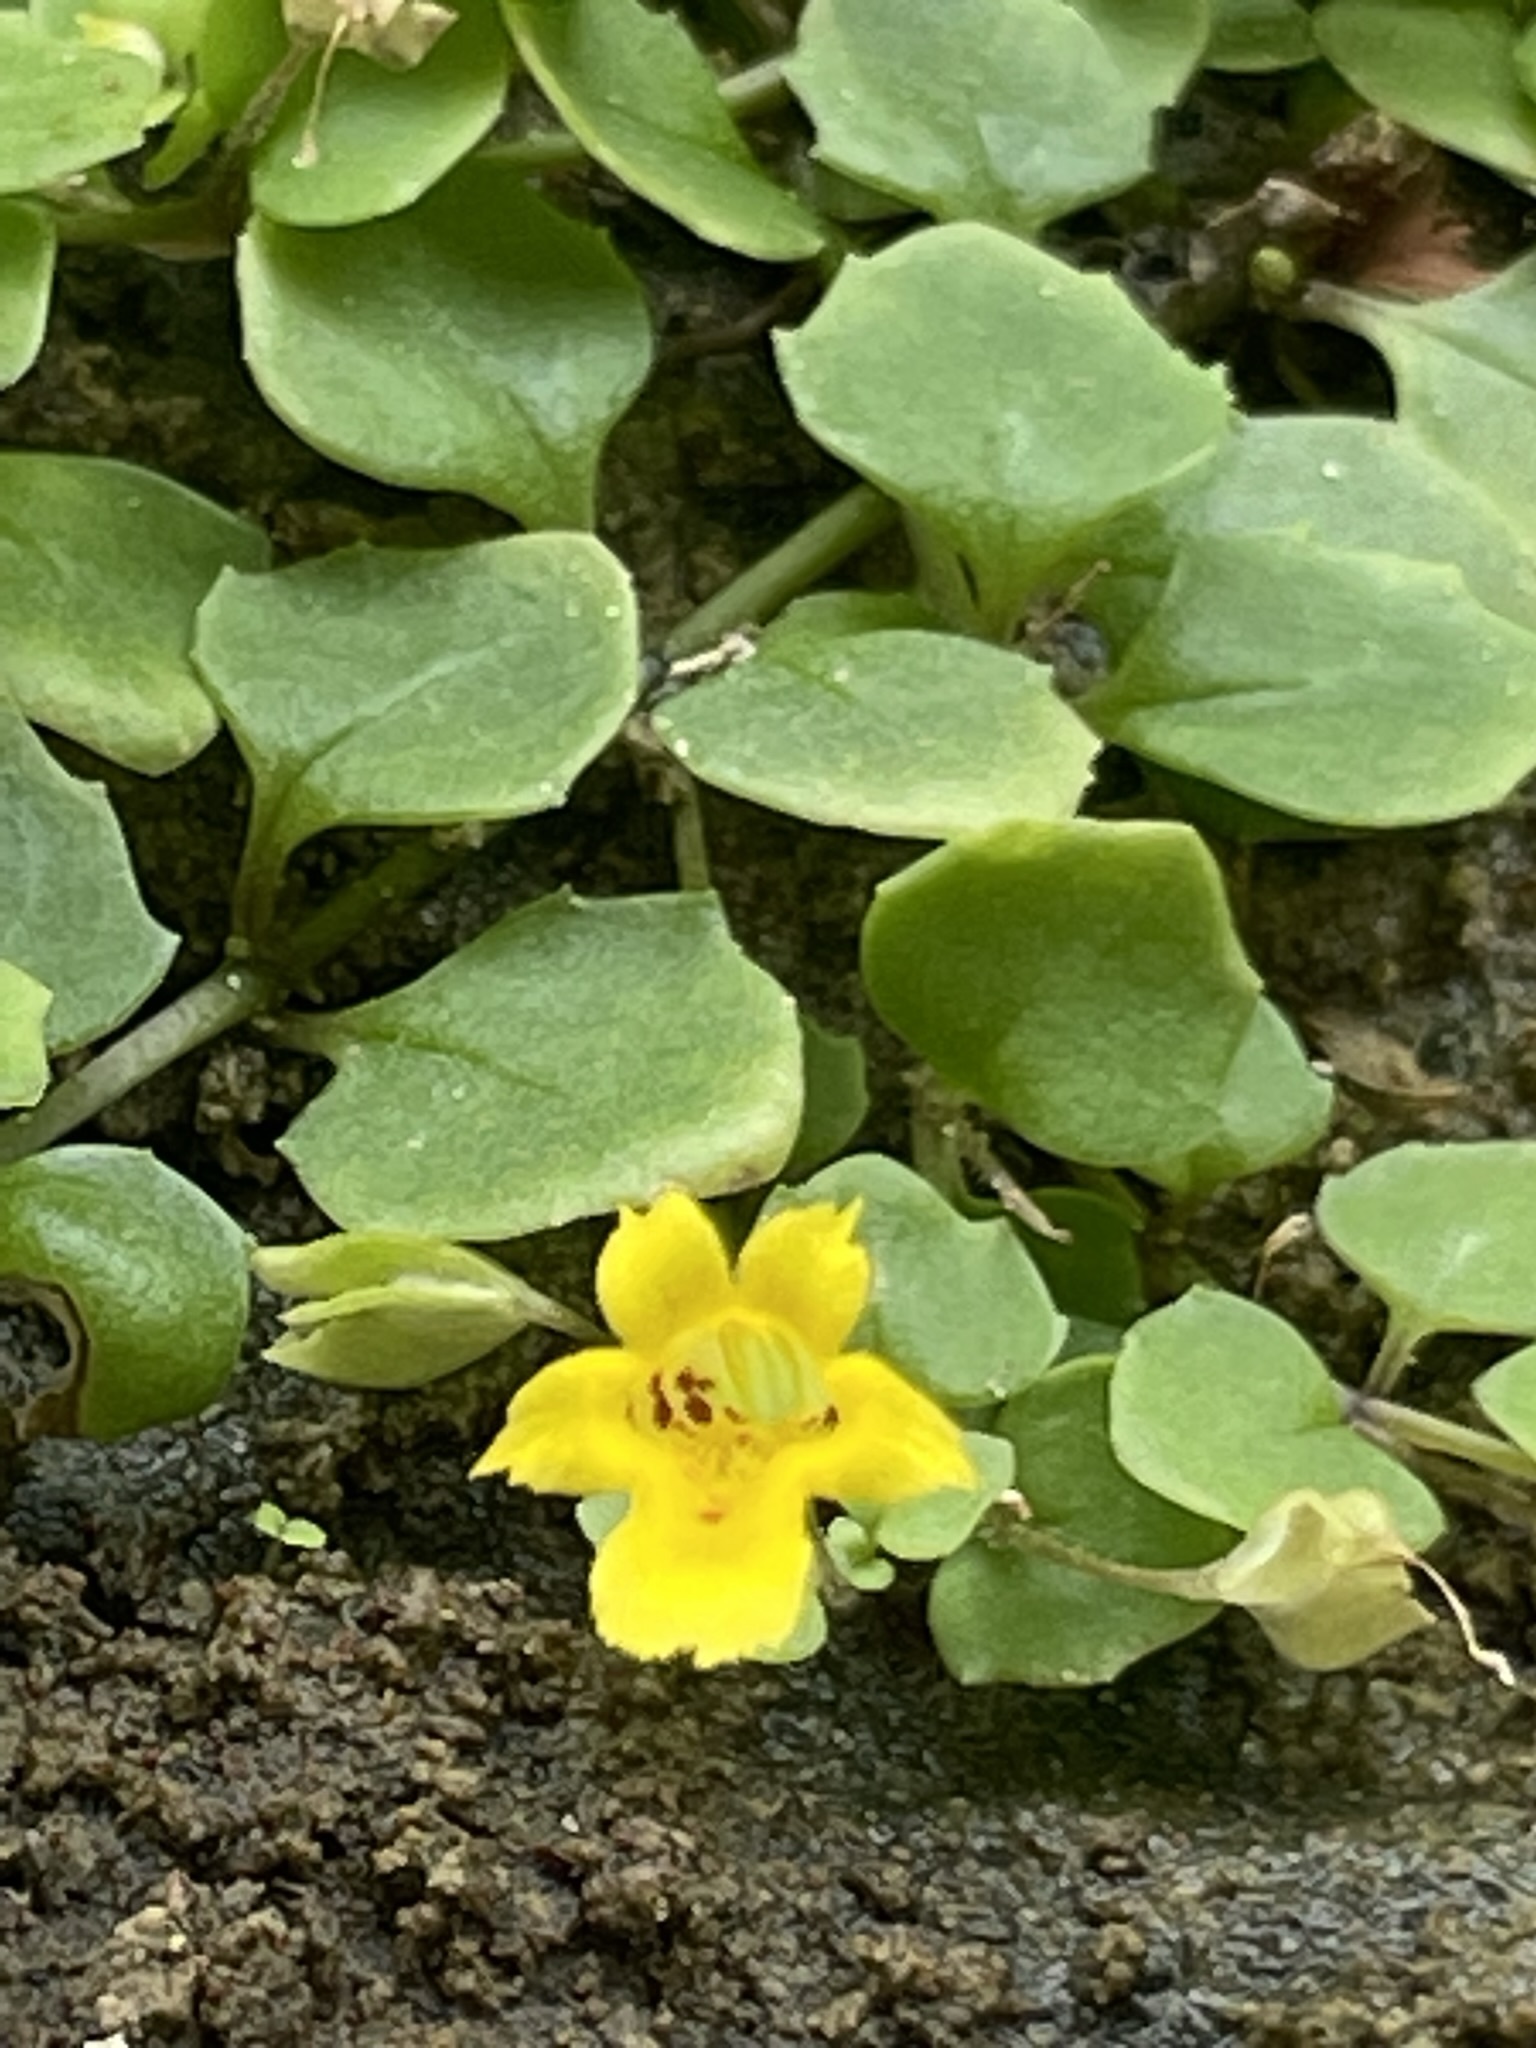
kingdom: Plantae
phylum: Tracheophyta
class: Magnoliopsida
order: Lamiales
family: Plantaginaceae
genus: Mecardonia
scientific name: Mecardonia procumbens
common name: Baby jump-up
